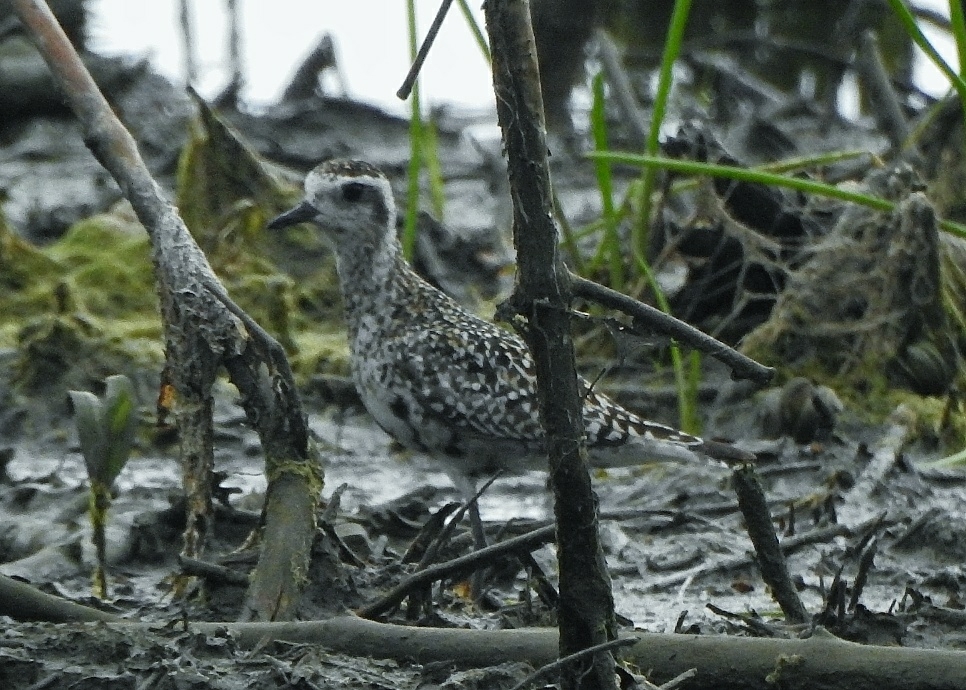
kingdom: Animalia
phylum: Chordata
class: Aves
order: Charadriiformes
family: Charadriidae
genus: Pluvialis
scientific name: Pluvialis fulva
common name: Pacific golden plover
